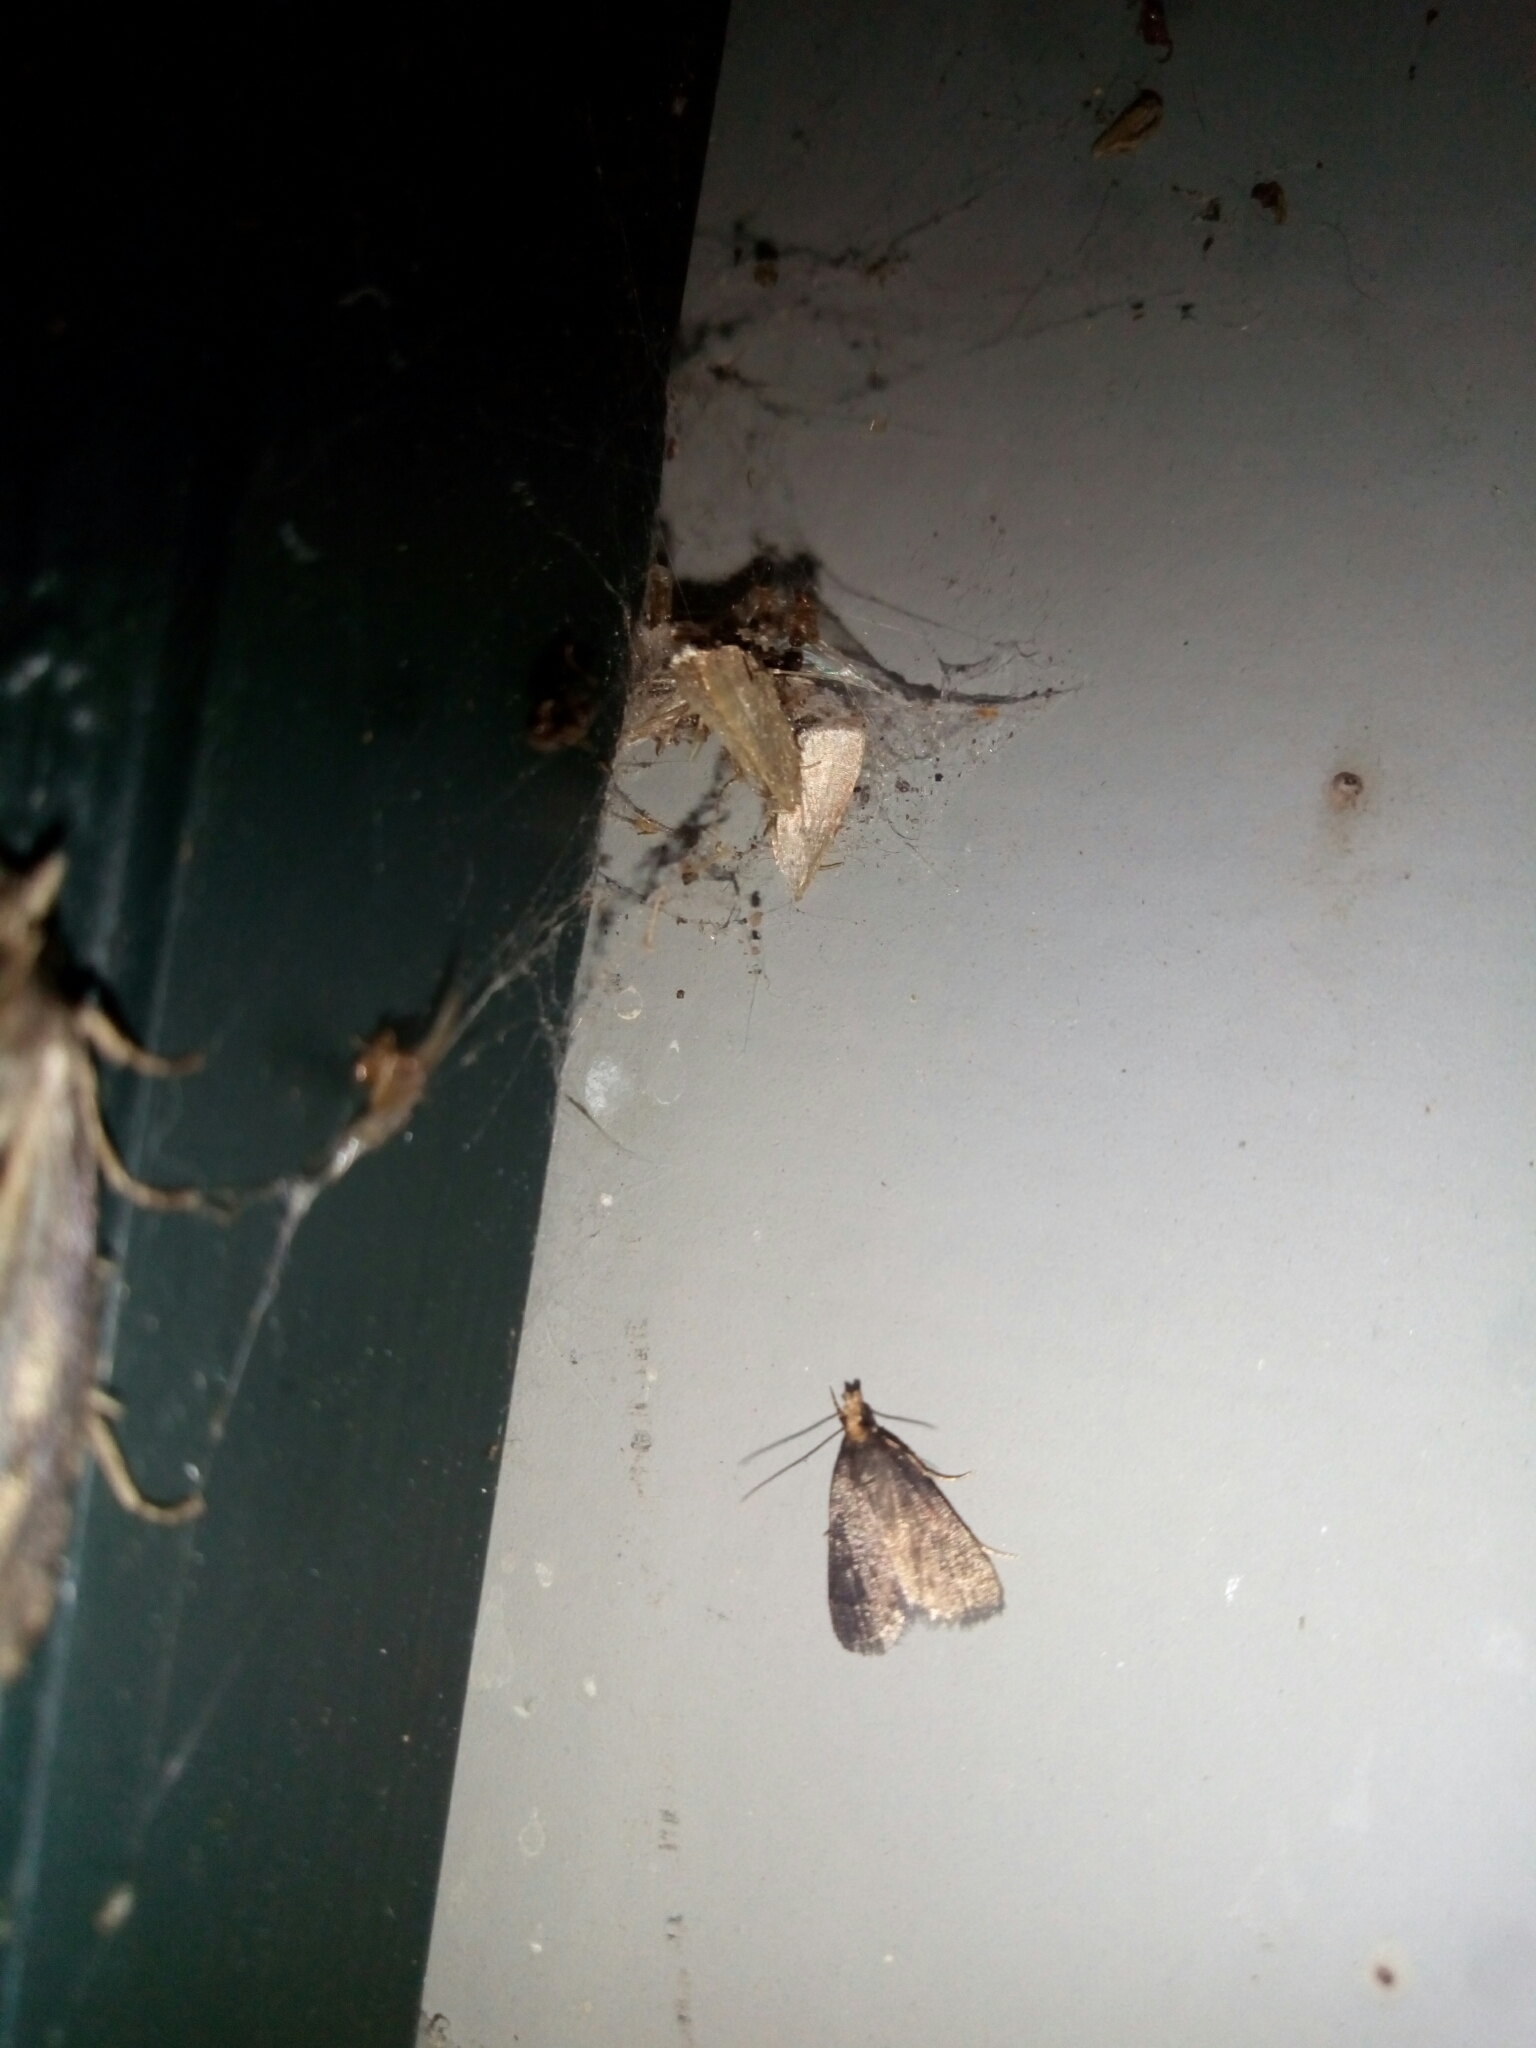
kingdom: Animalia
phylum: Arthropoda
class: Insecta
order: Lepidoptera
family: Crambidae
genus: Pyrausta
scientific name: Pyrausta merrickalis
